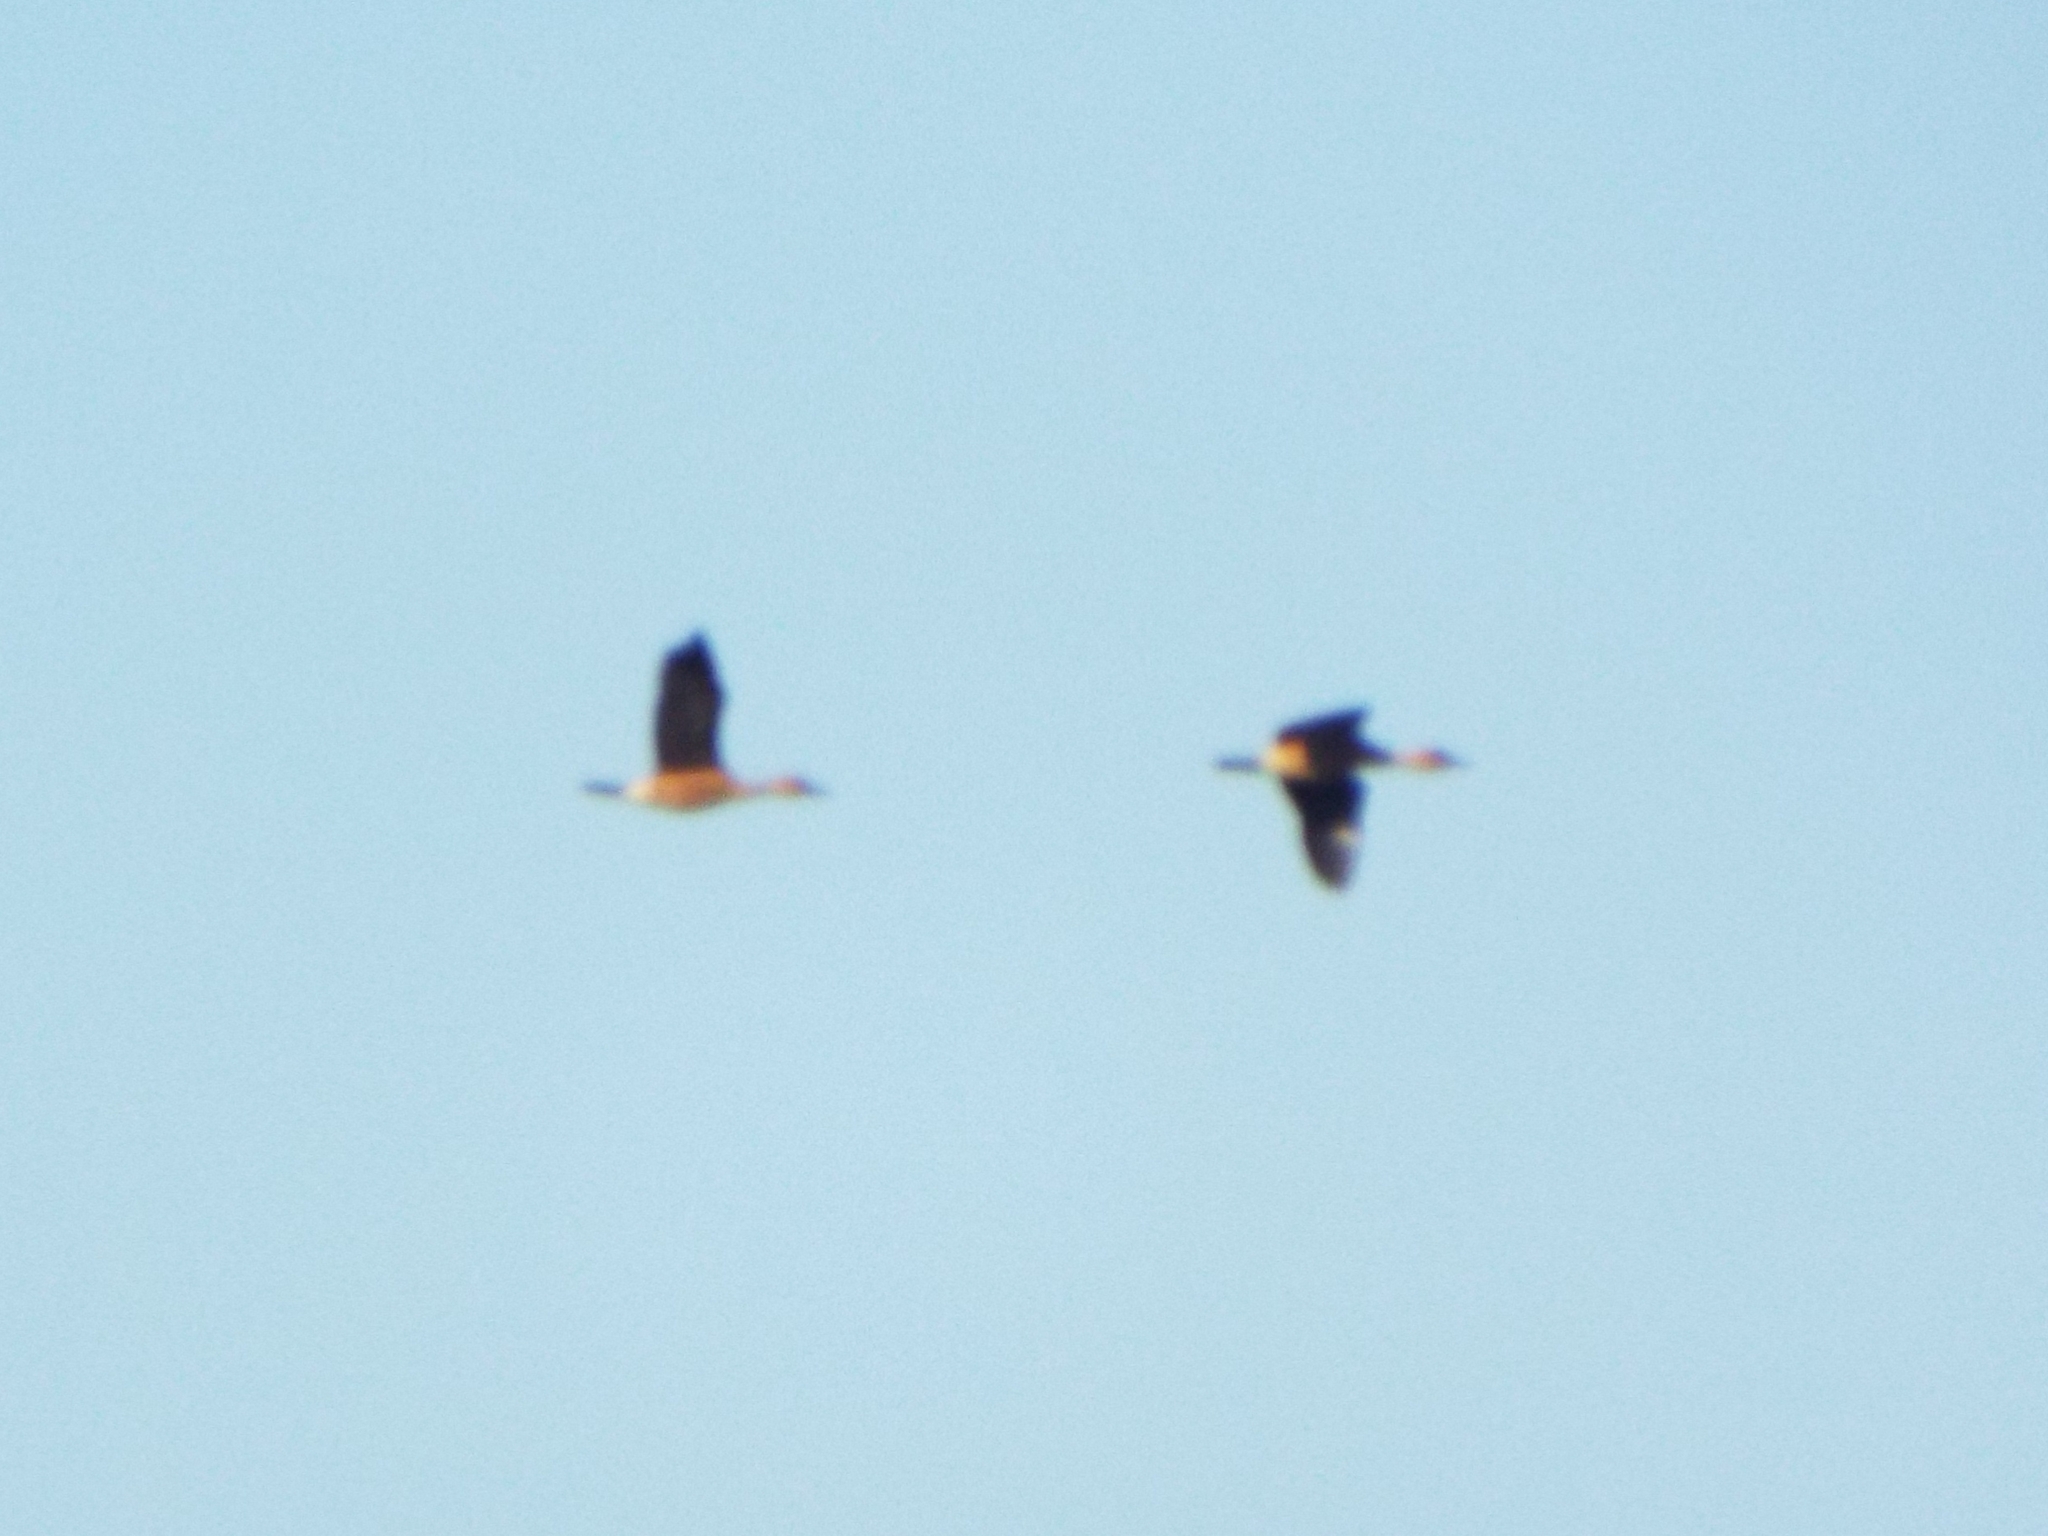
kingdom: Animalia
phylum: Chordata
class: Aves
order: Anseriformes
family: Anatidae
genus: Dendrocygna
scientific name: Dendrocygna bicolor
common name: Fulvous whistling duck
